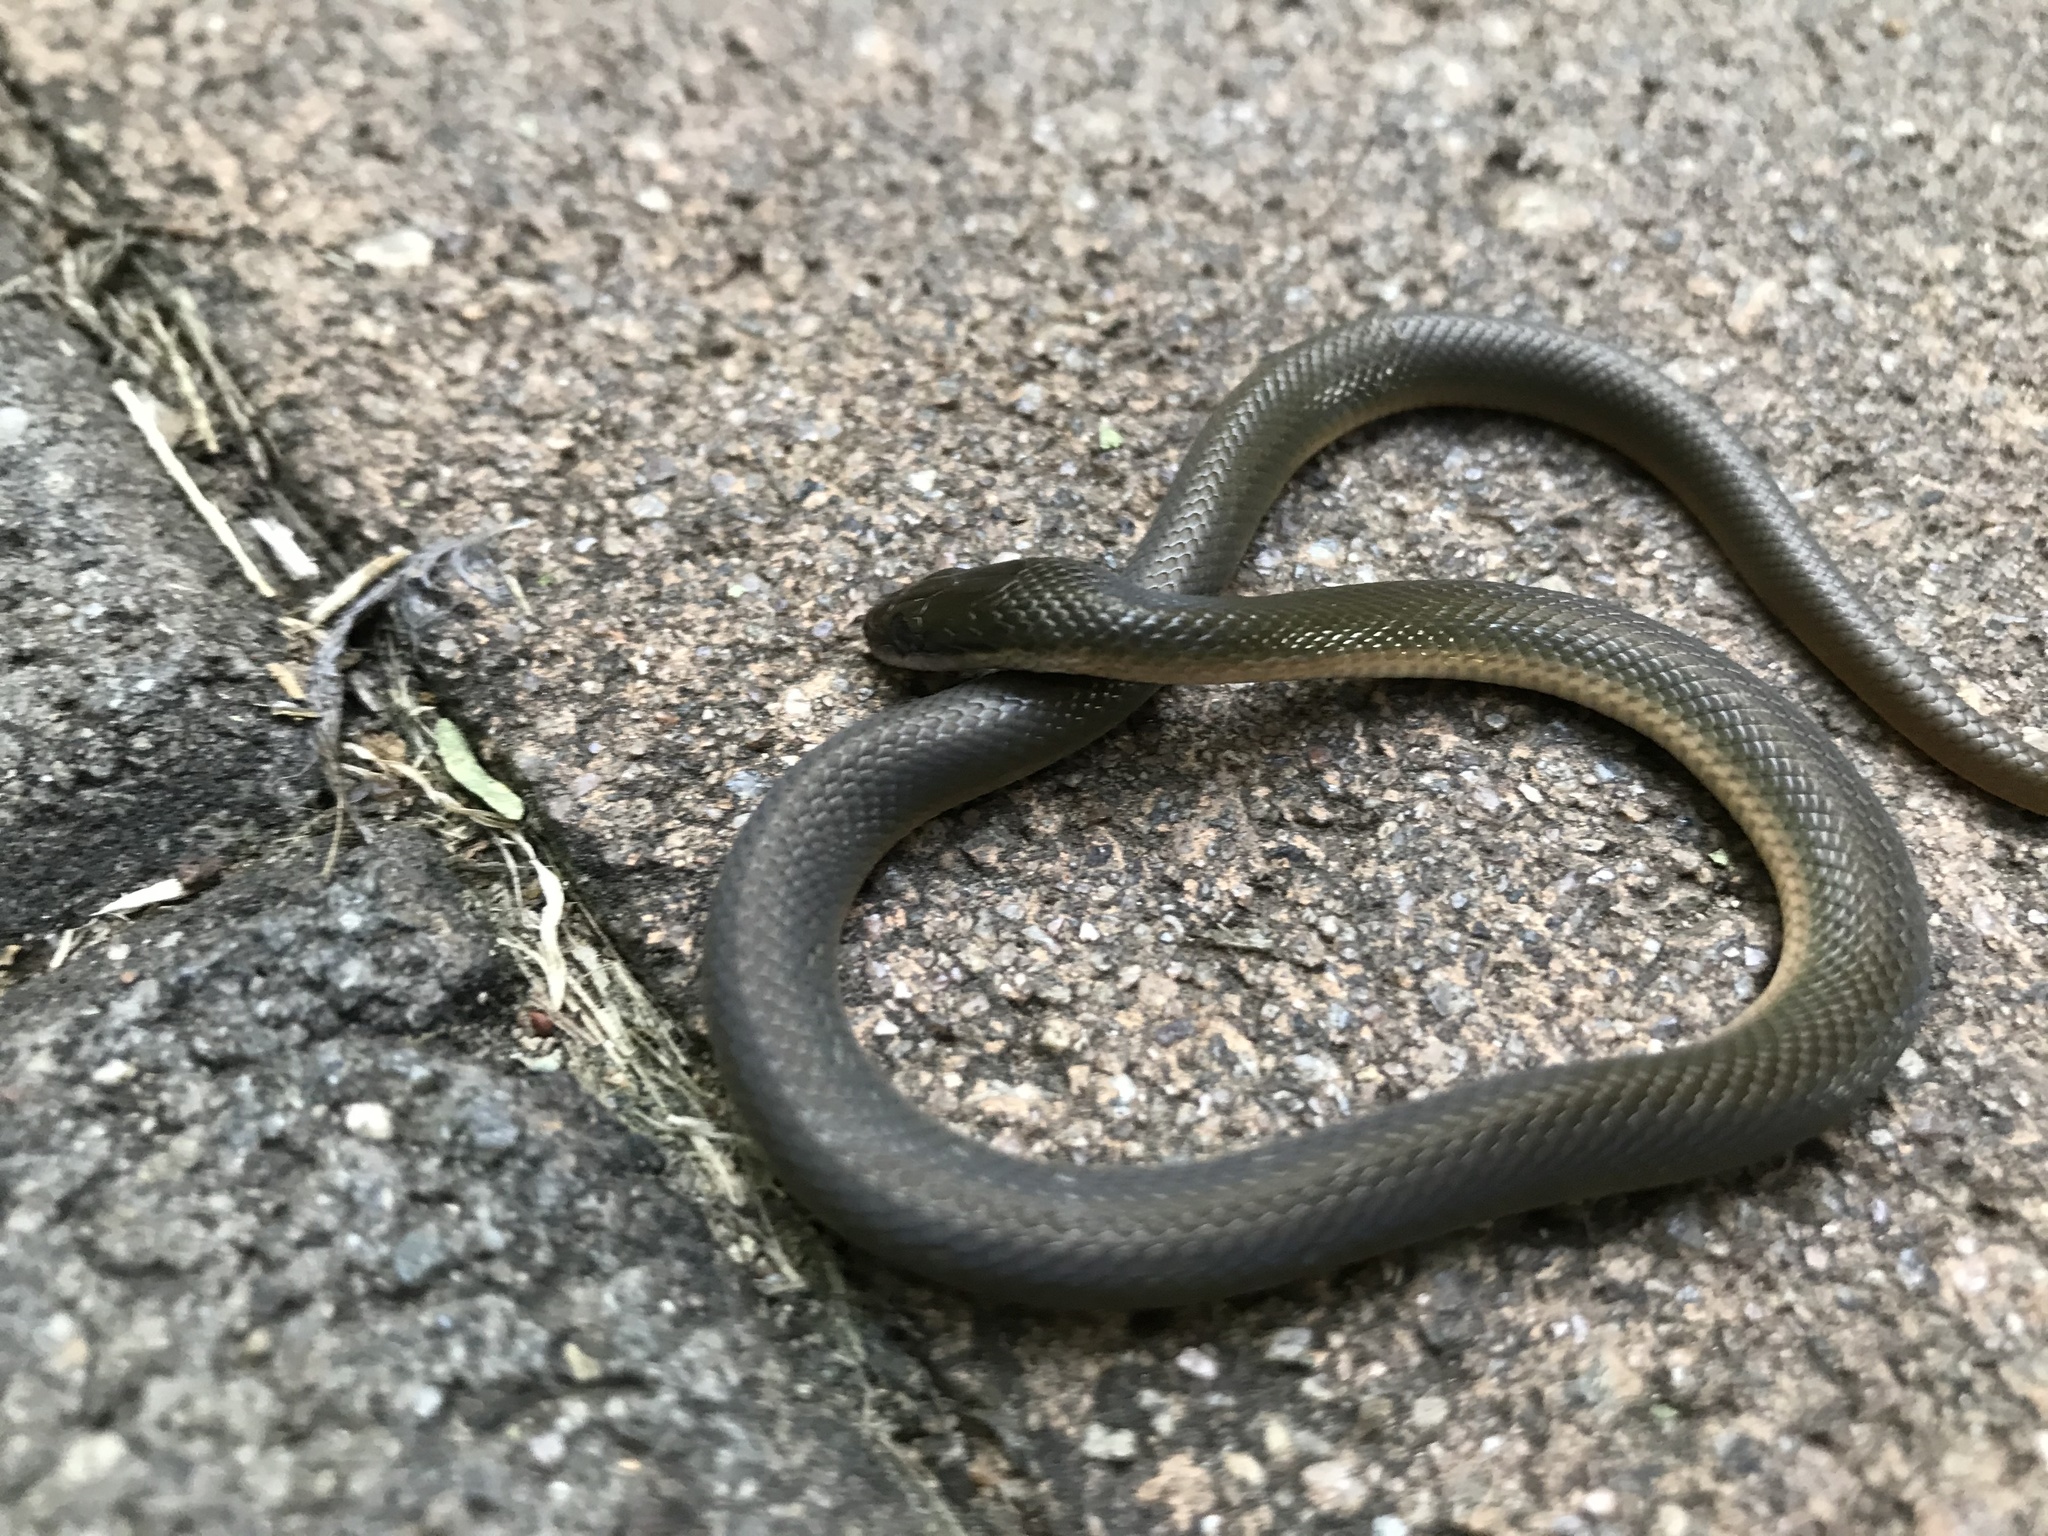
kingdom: Animalia
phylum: Chordata
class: Squamata
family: Lamprophiidae
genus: Lycodonomorphus
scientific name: Lycodonomorphus rufulus
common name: Brown water snake
